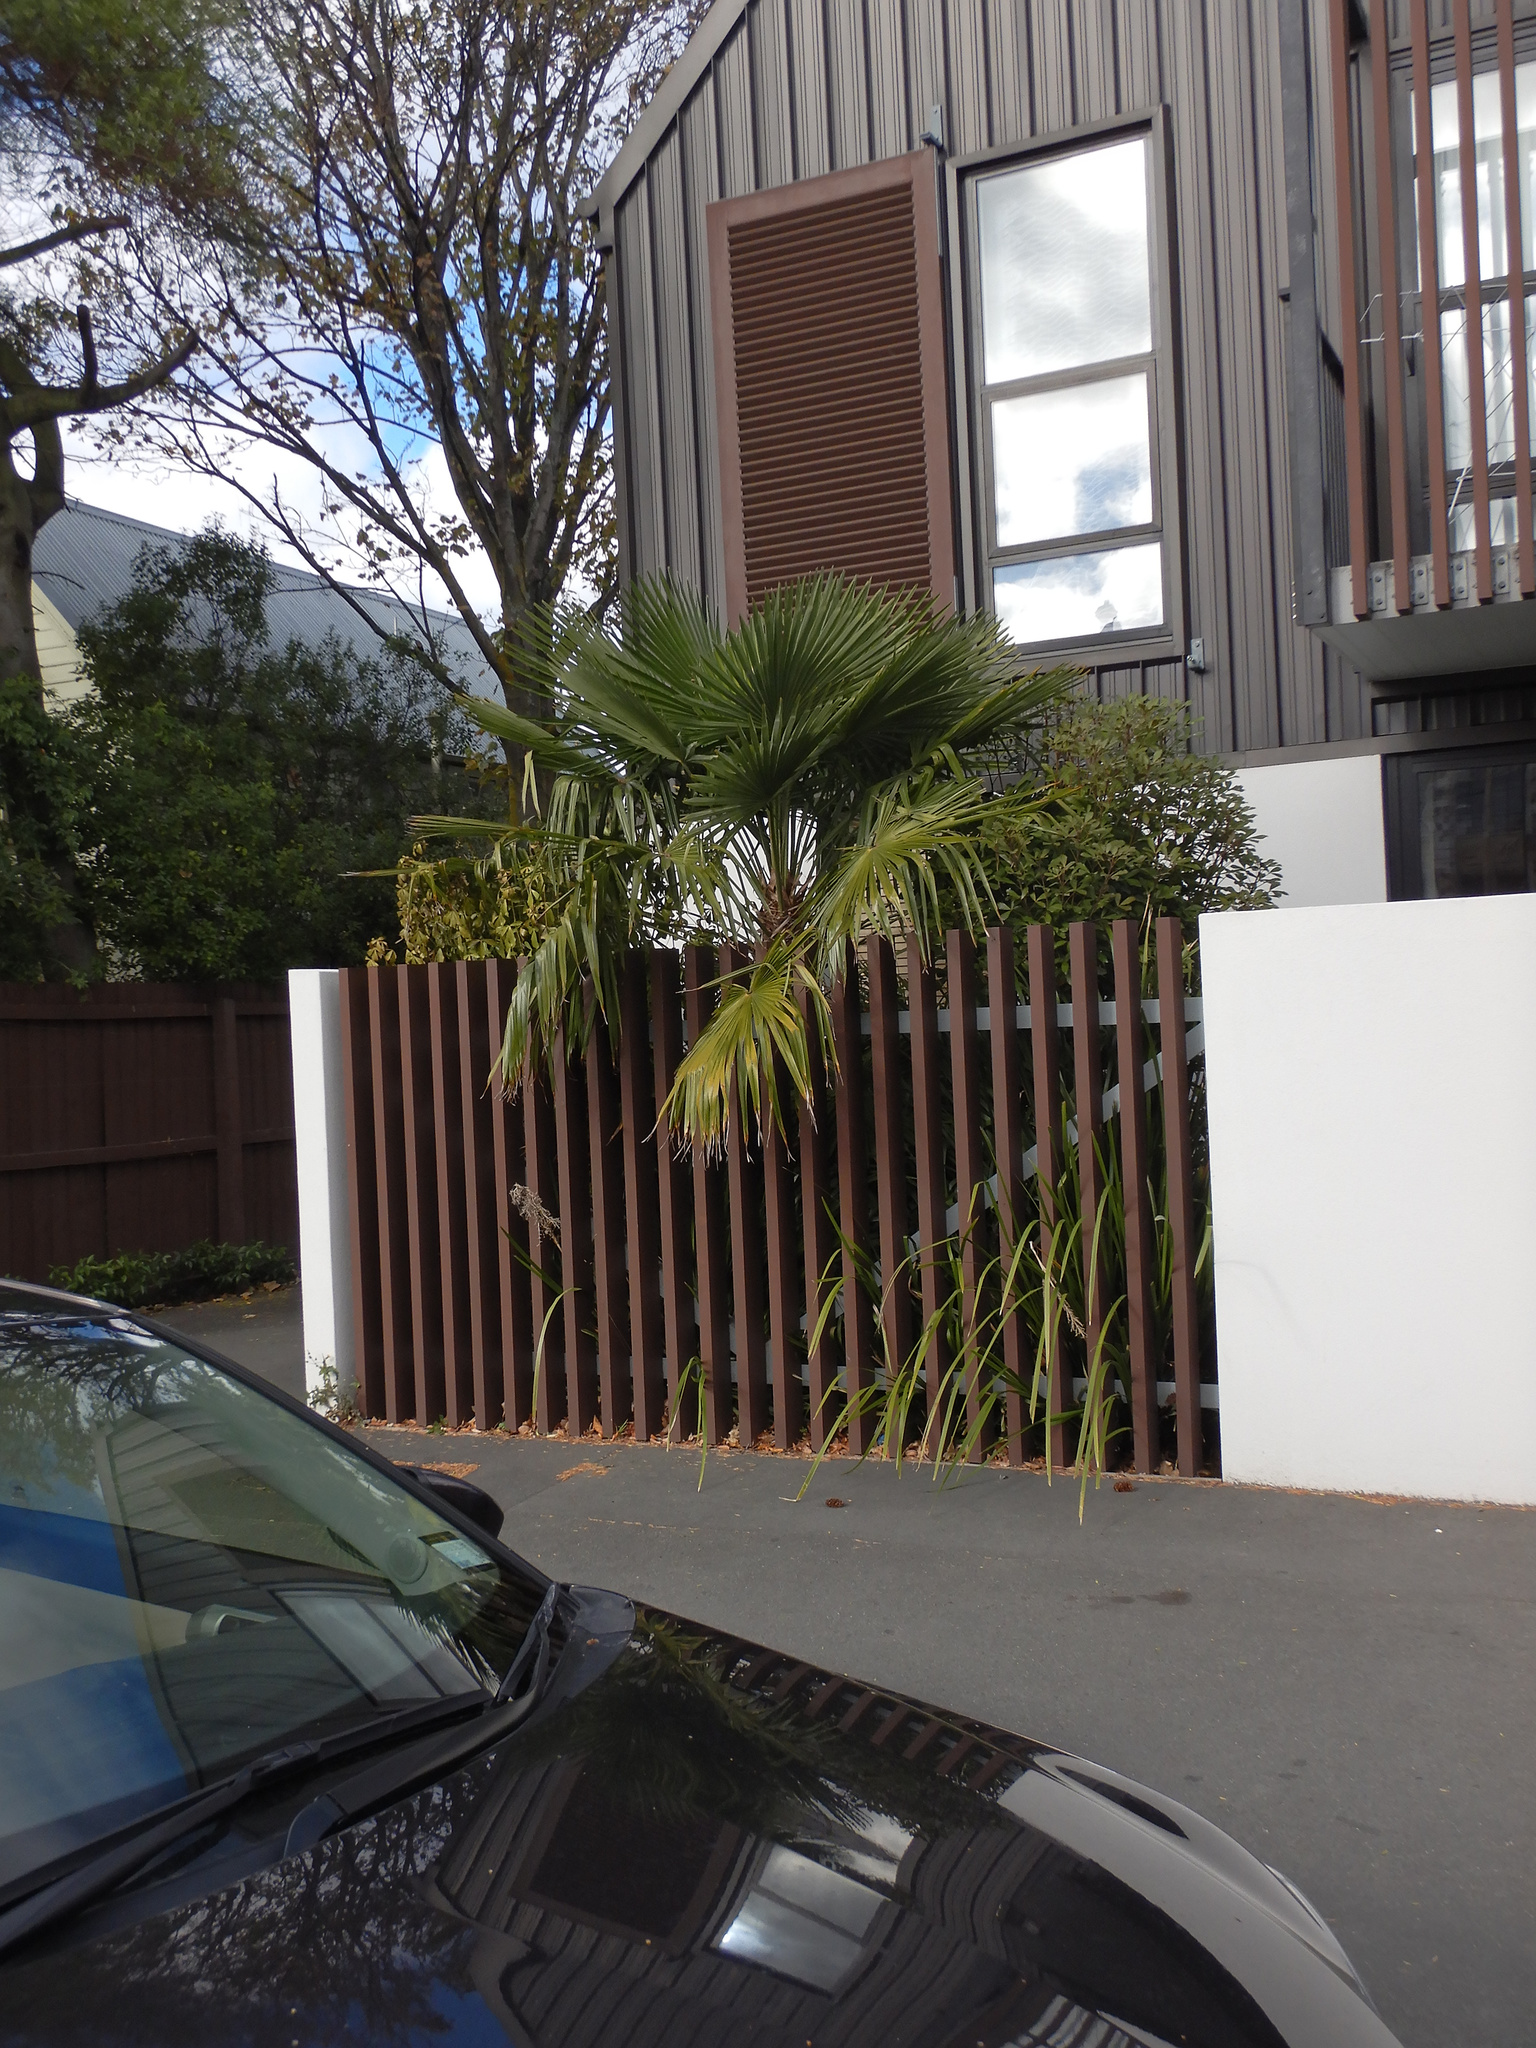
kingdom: Plantae
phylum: Tracheophyta
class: Liliopsida
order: Arecales
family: Arecaceae
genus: Trachycarpus
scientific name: Trachycarpus fortunei
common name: Chusan palm
